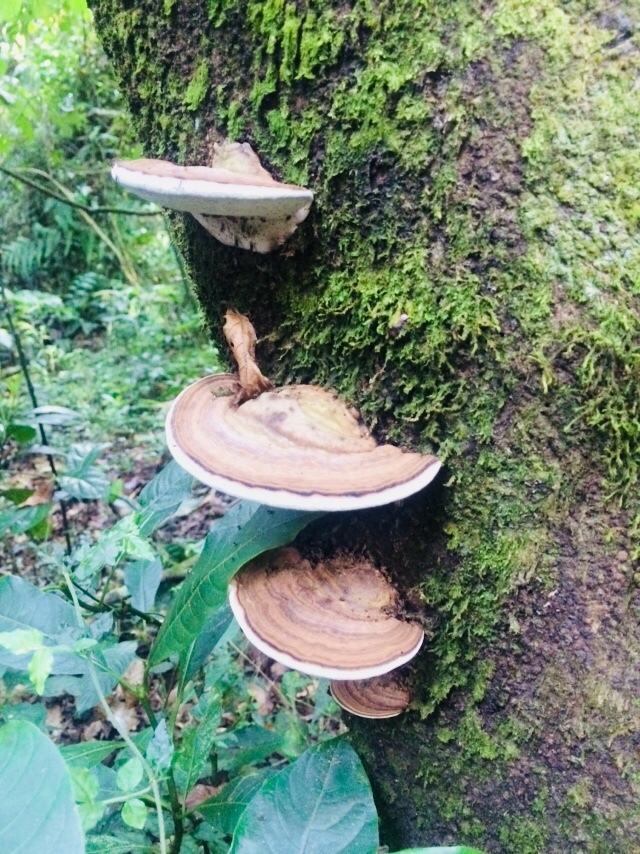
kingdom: Fungi
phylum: Basidiomycota
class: Agaricomycetes
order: Polyporales
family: Polyporaceae
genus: Ganoderma
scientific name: Ganoderma applanatum
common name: Artist's bracket
